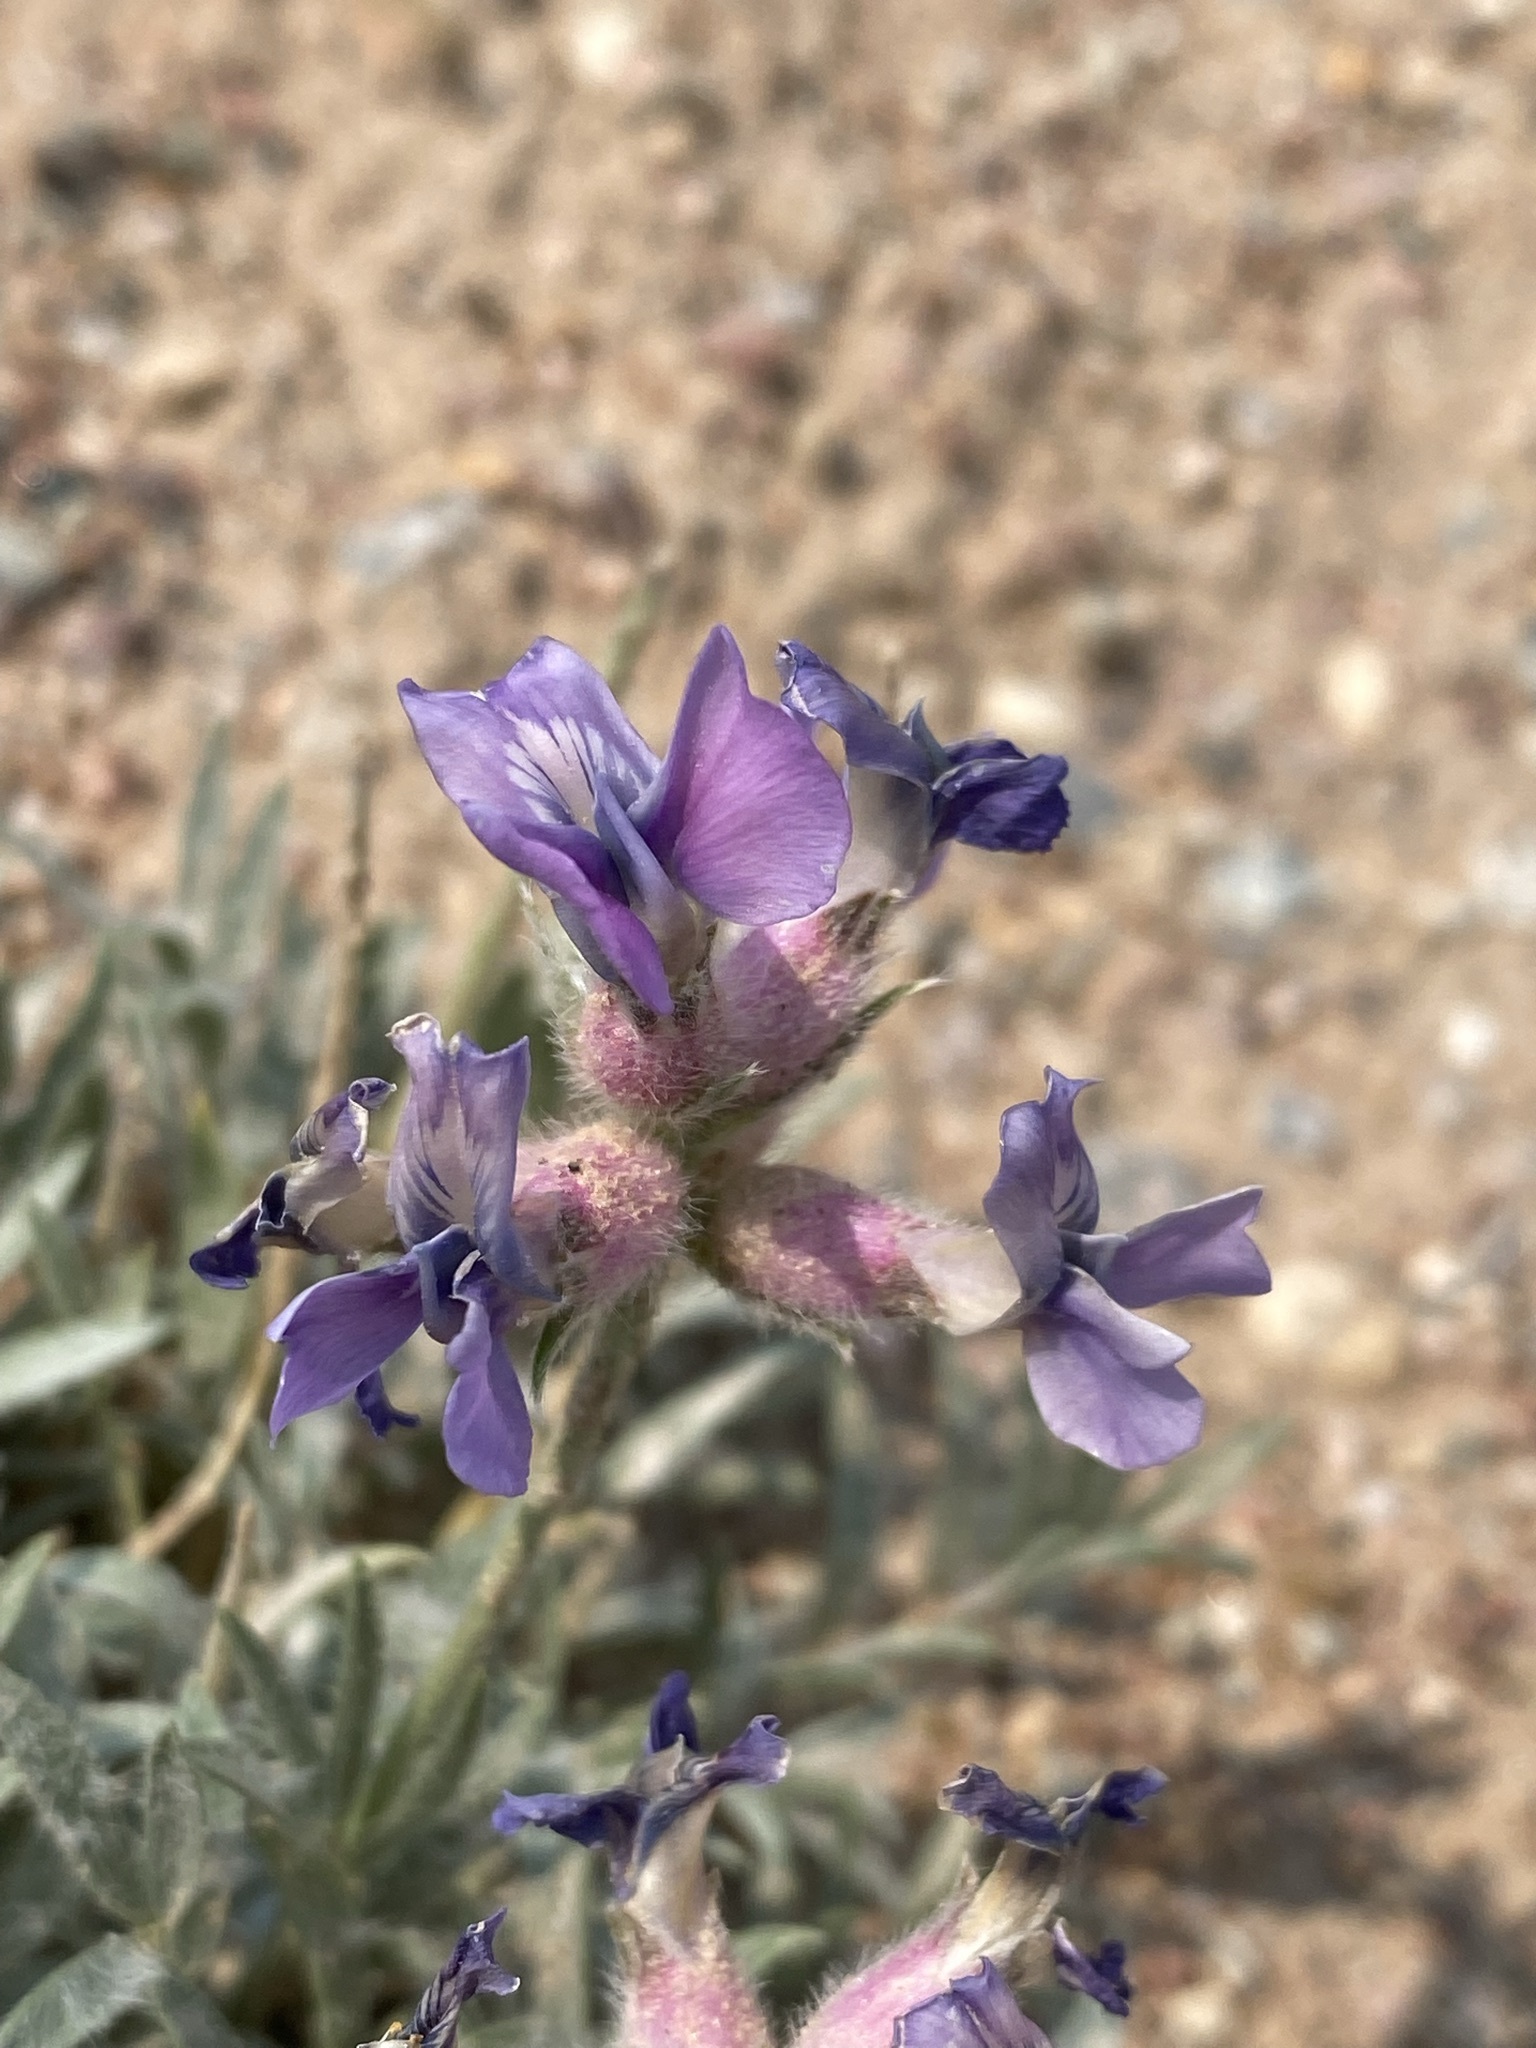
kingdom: Plantae
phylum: Tracheophyta
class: Magnoliopsida
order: Fabales
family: Fabaceae
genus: Oxytropis
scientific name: Oxytropis besseyi
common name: Bessey's locoweed
